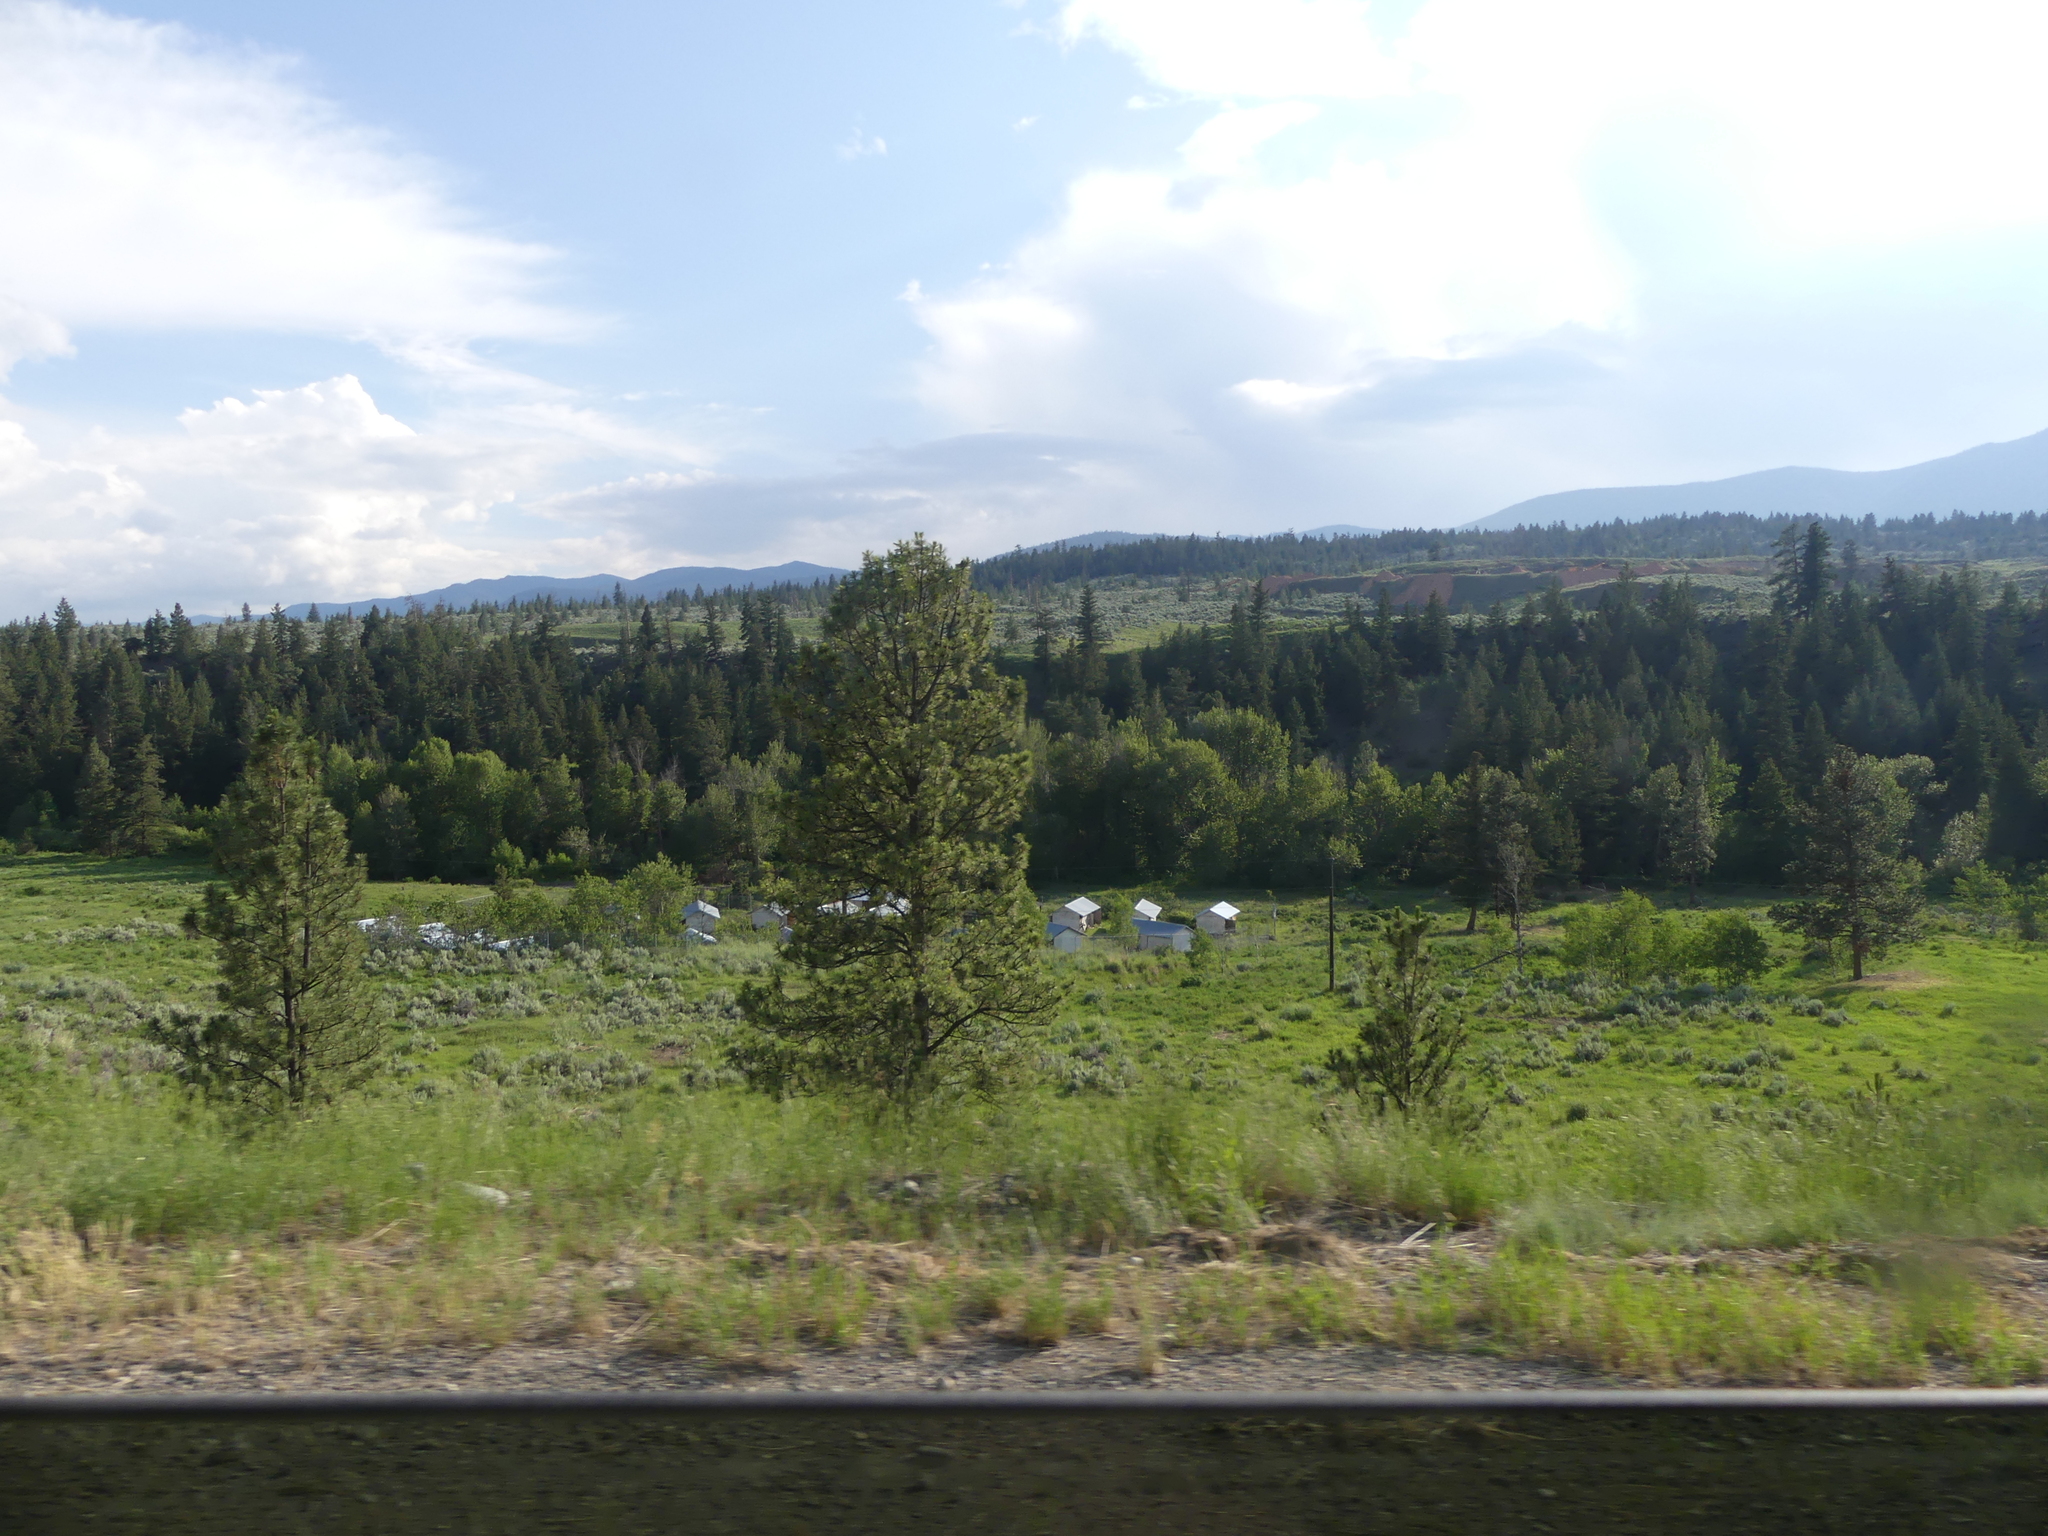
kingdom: Plantae
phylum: Tracheophyta
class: Pinopsida
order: Pinales
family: Pinaceae
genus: Pinus
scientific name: Pinus contorta
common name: Lodgepole pine
